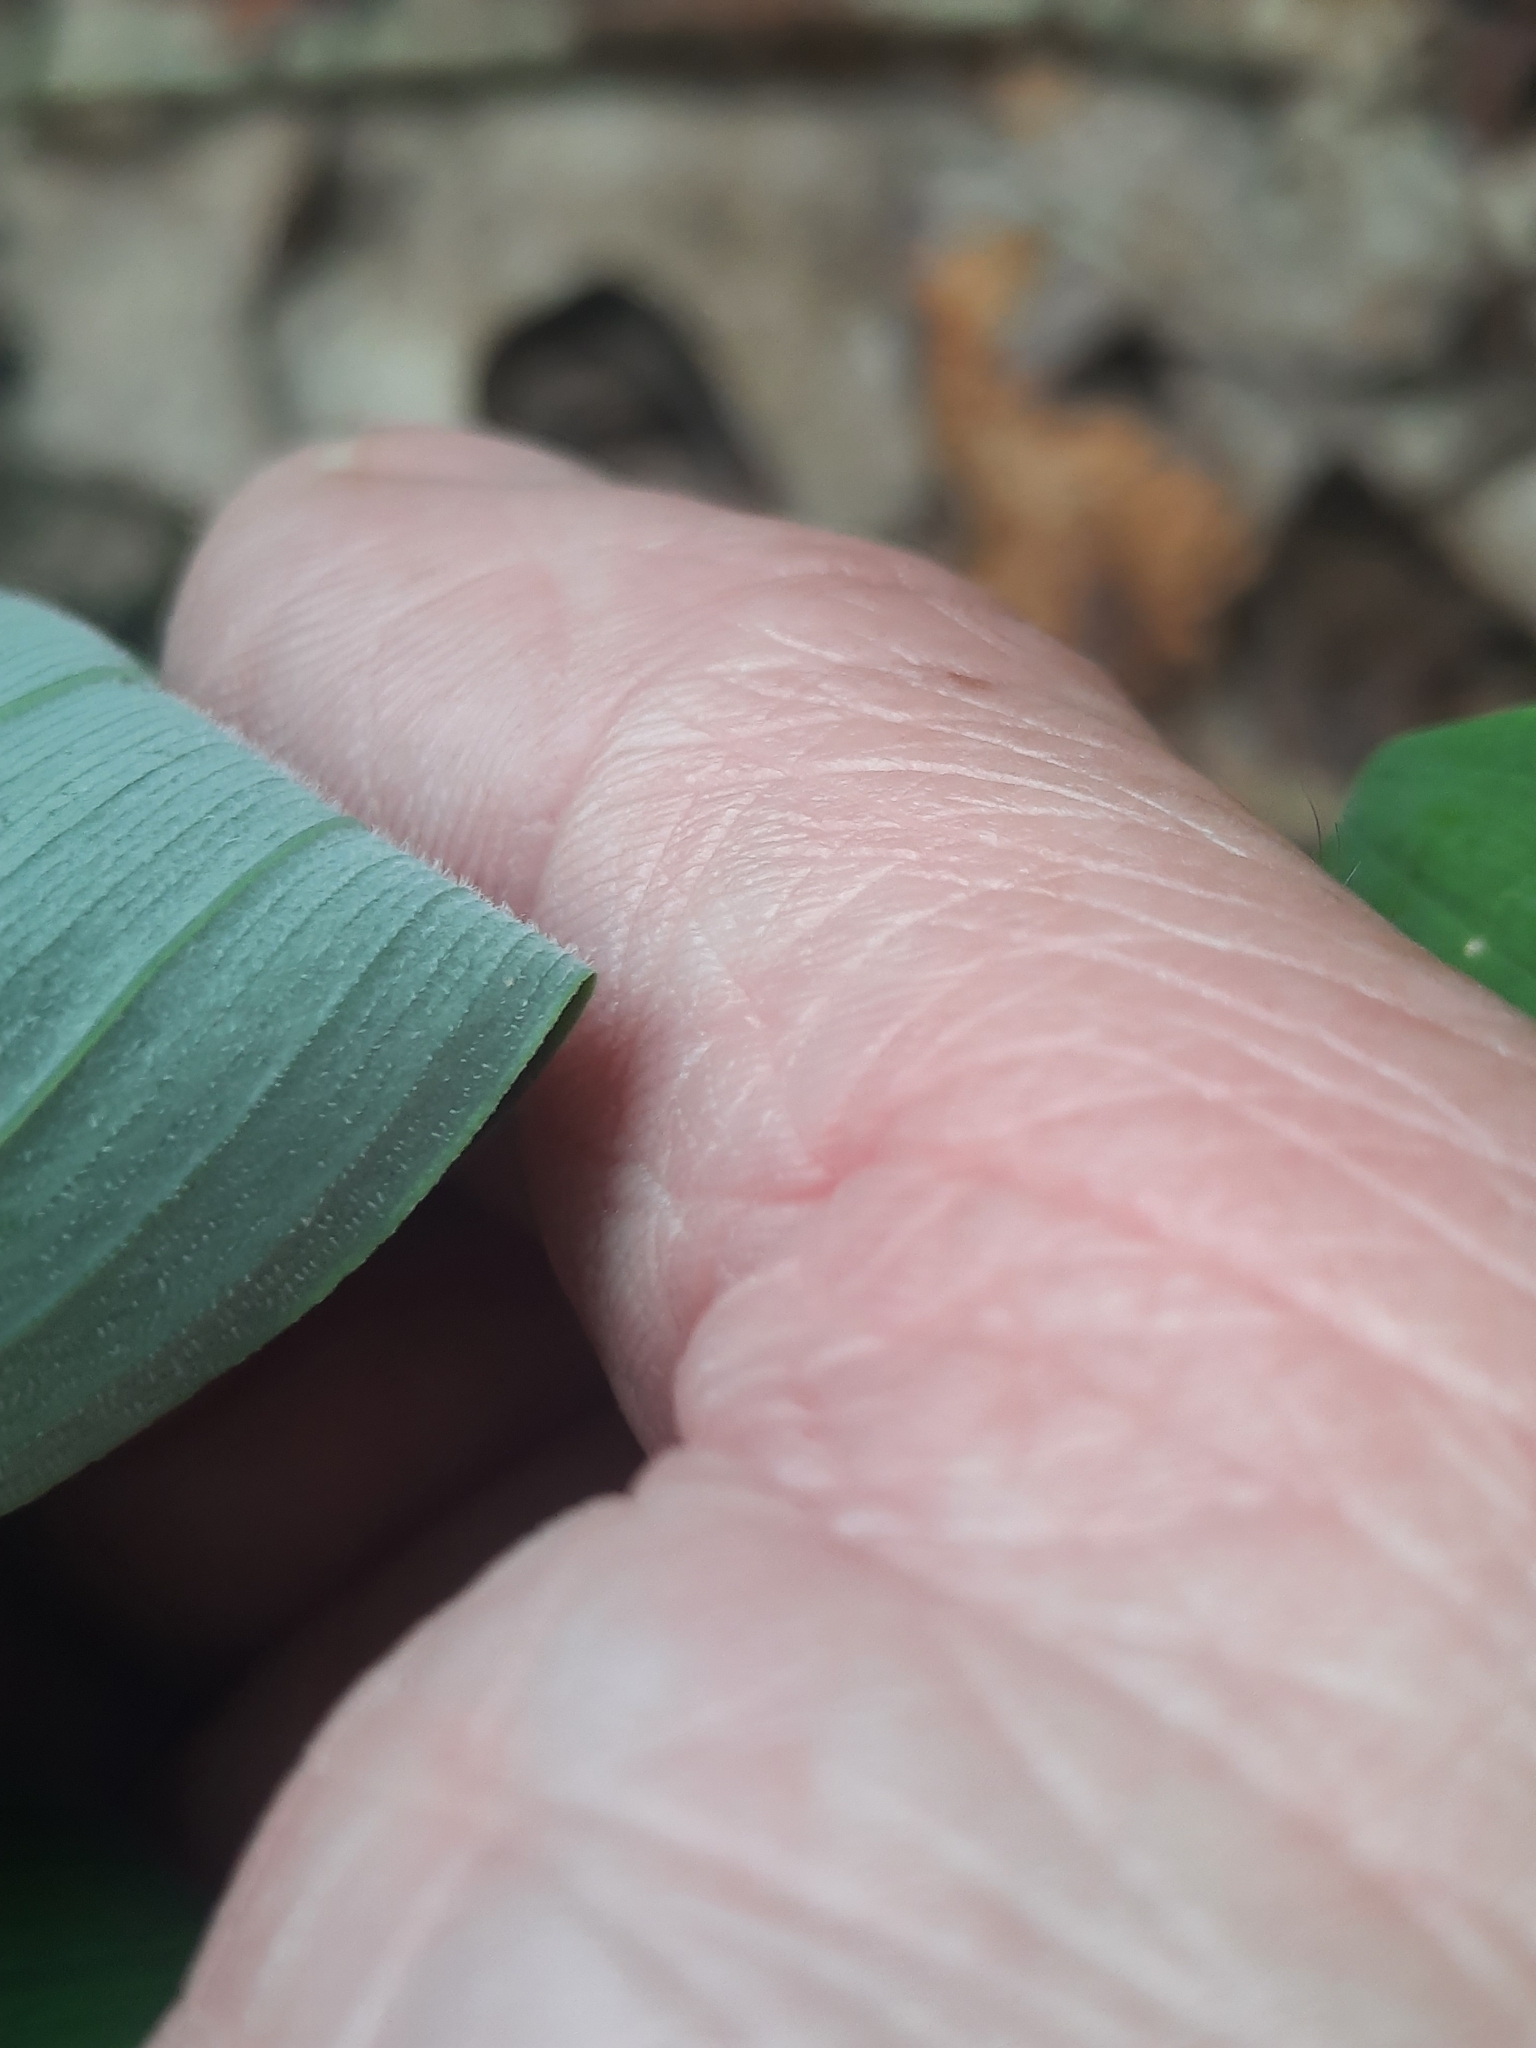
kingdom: Plantae
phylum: Tracheophyta
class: Liliopsida
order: Asparagales
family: Asparagaceae
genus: Polygonatum
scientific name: Polygonatum pubescens
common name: Downy solomon's seal
